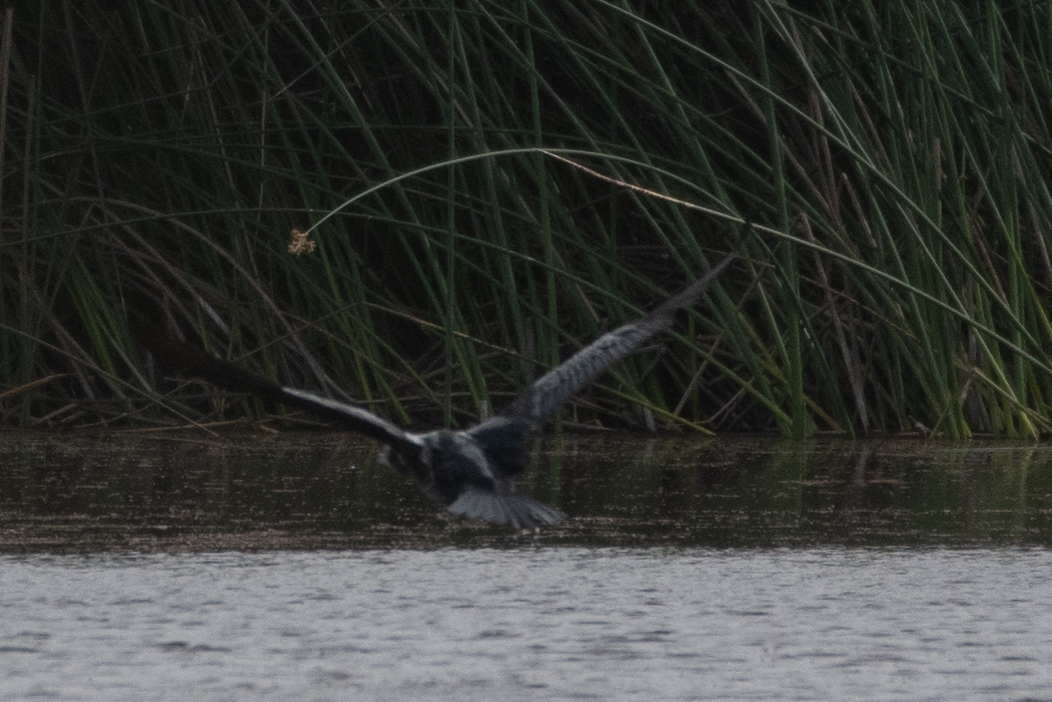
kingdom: Animalia
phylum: Chordata
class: Aves
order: Suliformes
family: Phalacrocoracidae
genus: Phalacrocorax
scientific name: Phalacrocorax auritus
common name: Double-crested cormorant
